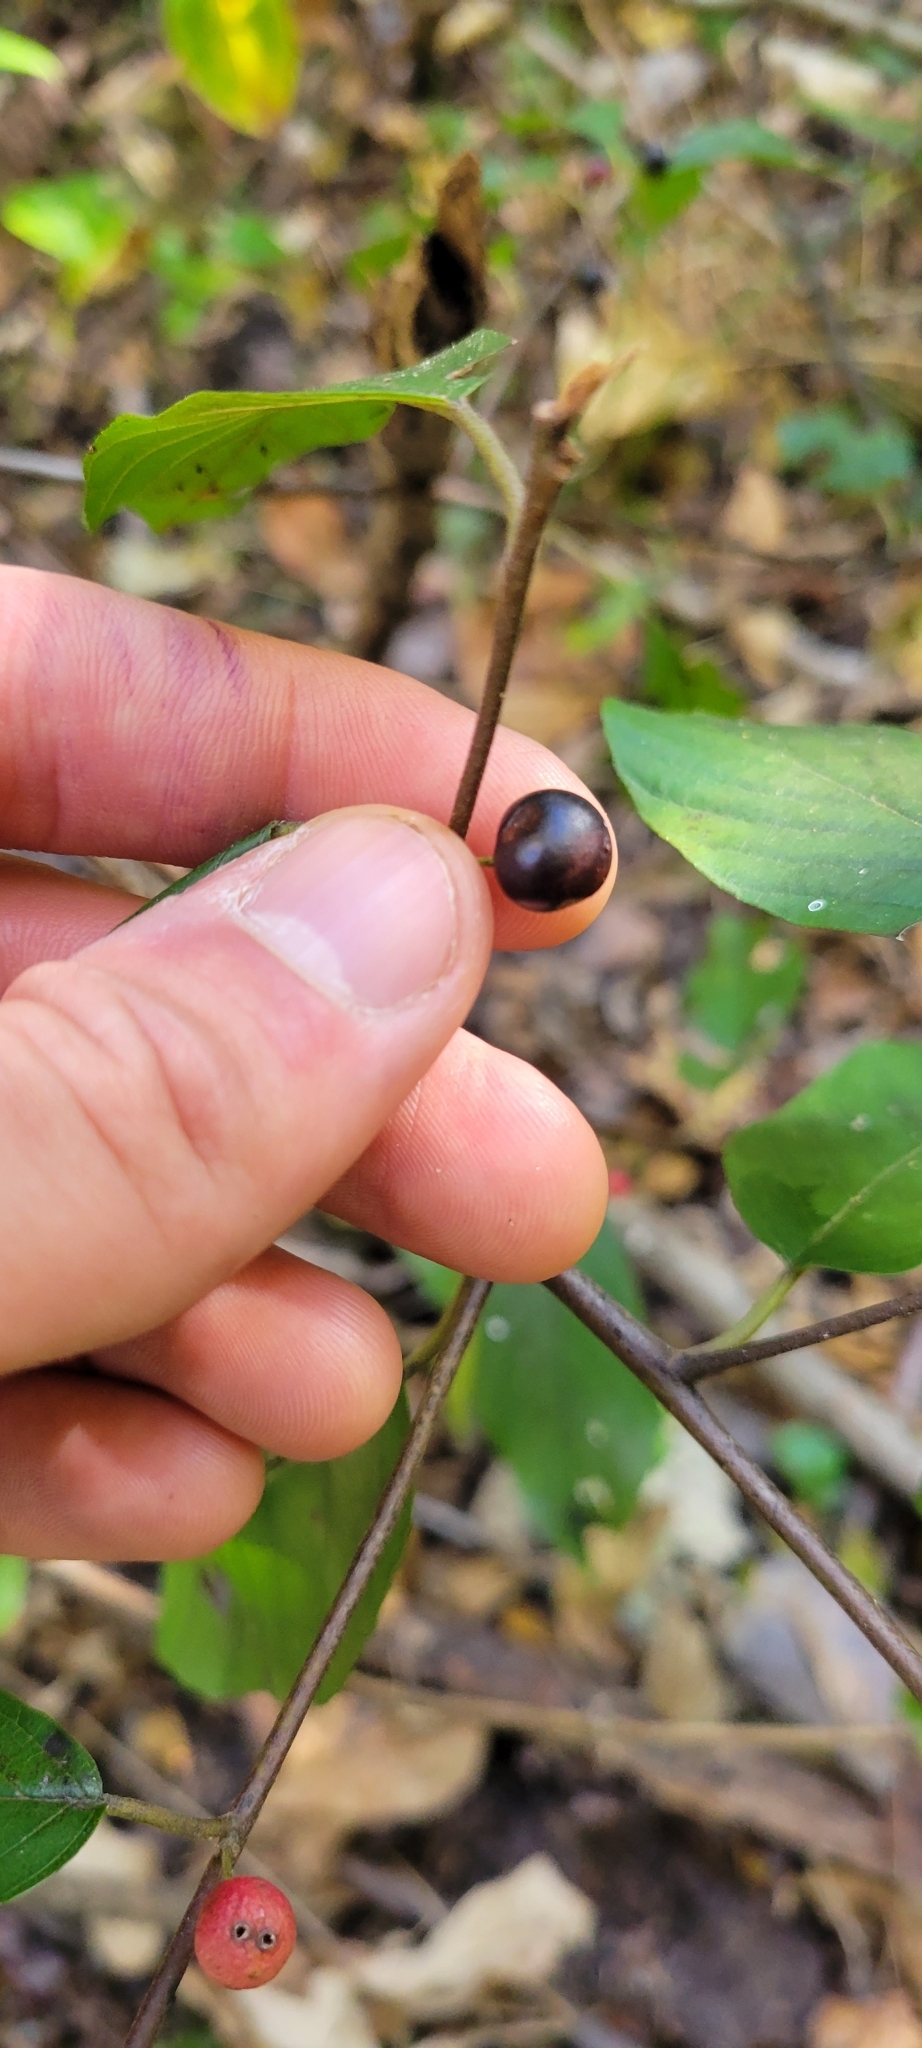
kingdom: Plantae
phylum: Tracheophyta
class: Magnoliopsida
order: Rosales
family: Rhamnaceae
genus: Frangula
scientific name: Frangula caroliniana
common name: Carolina buckthorn
